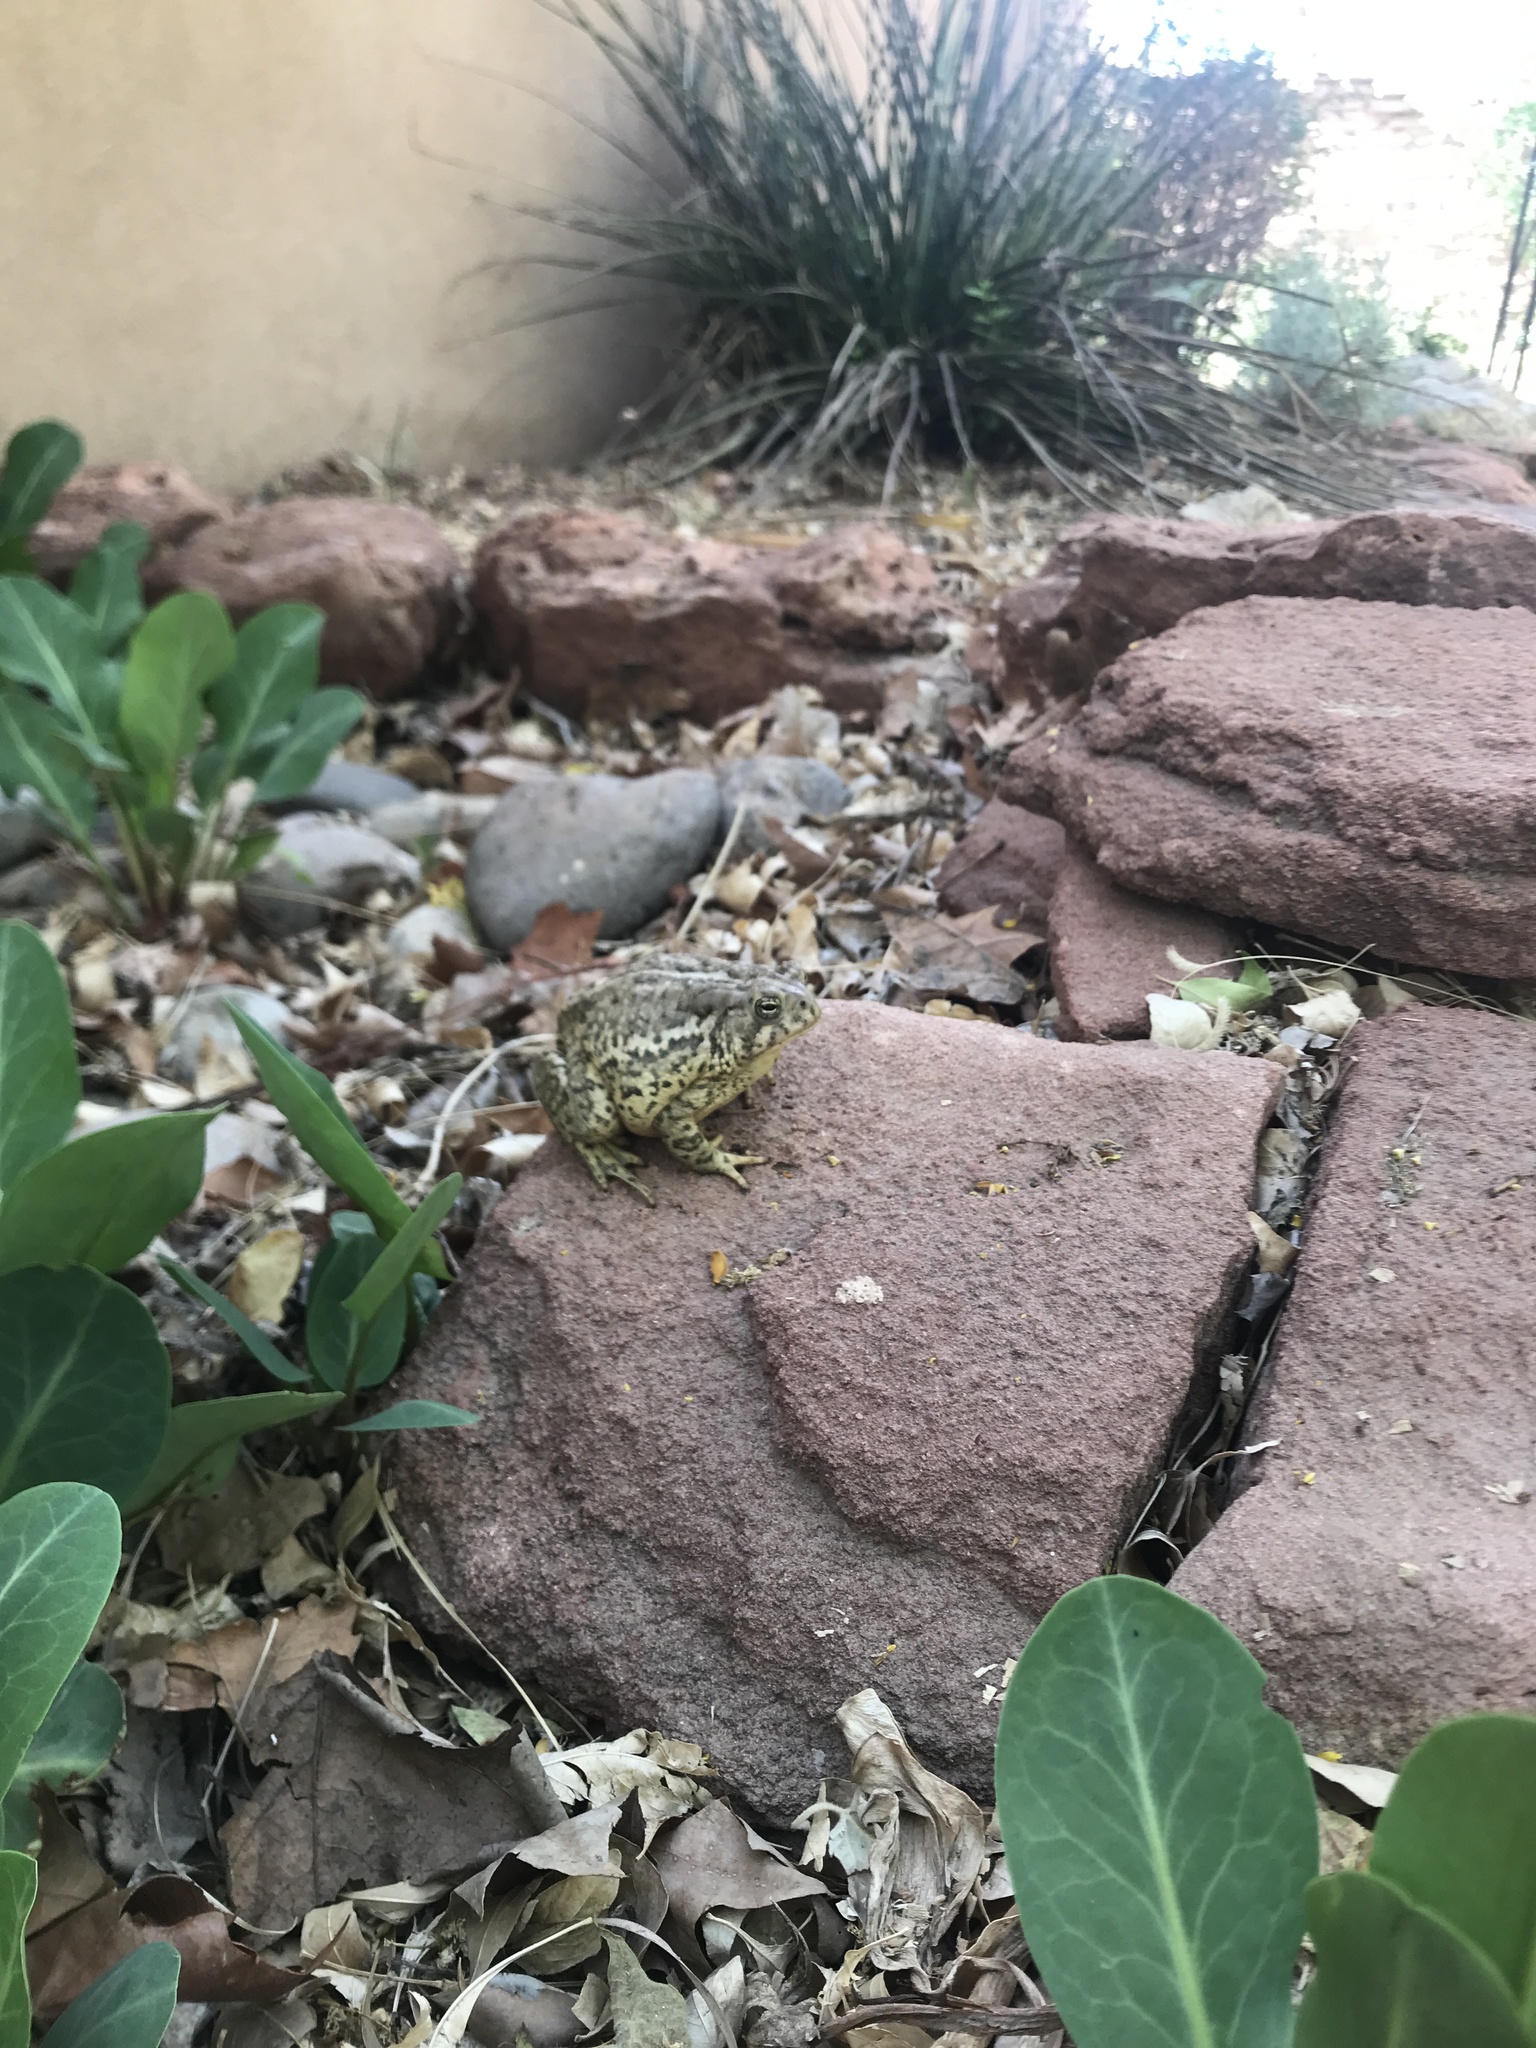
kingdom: Animalia
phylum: Chordata
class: Amphibia
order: Anura
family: Bufonidae
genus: Anaxyrus
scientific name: Anaxyrus woodhousii
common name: Woodhouse's toad
